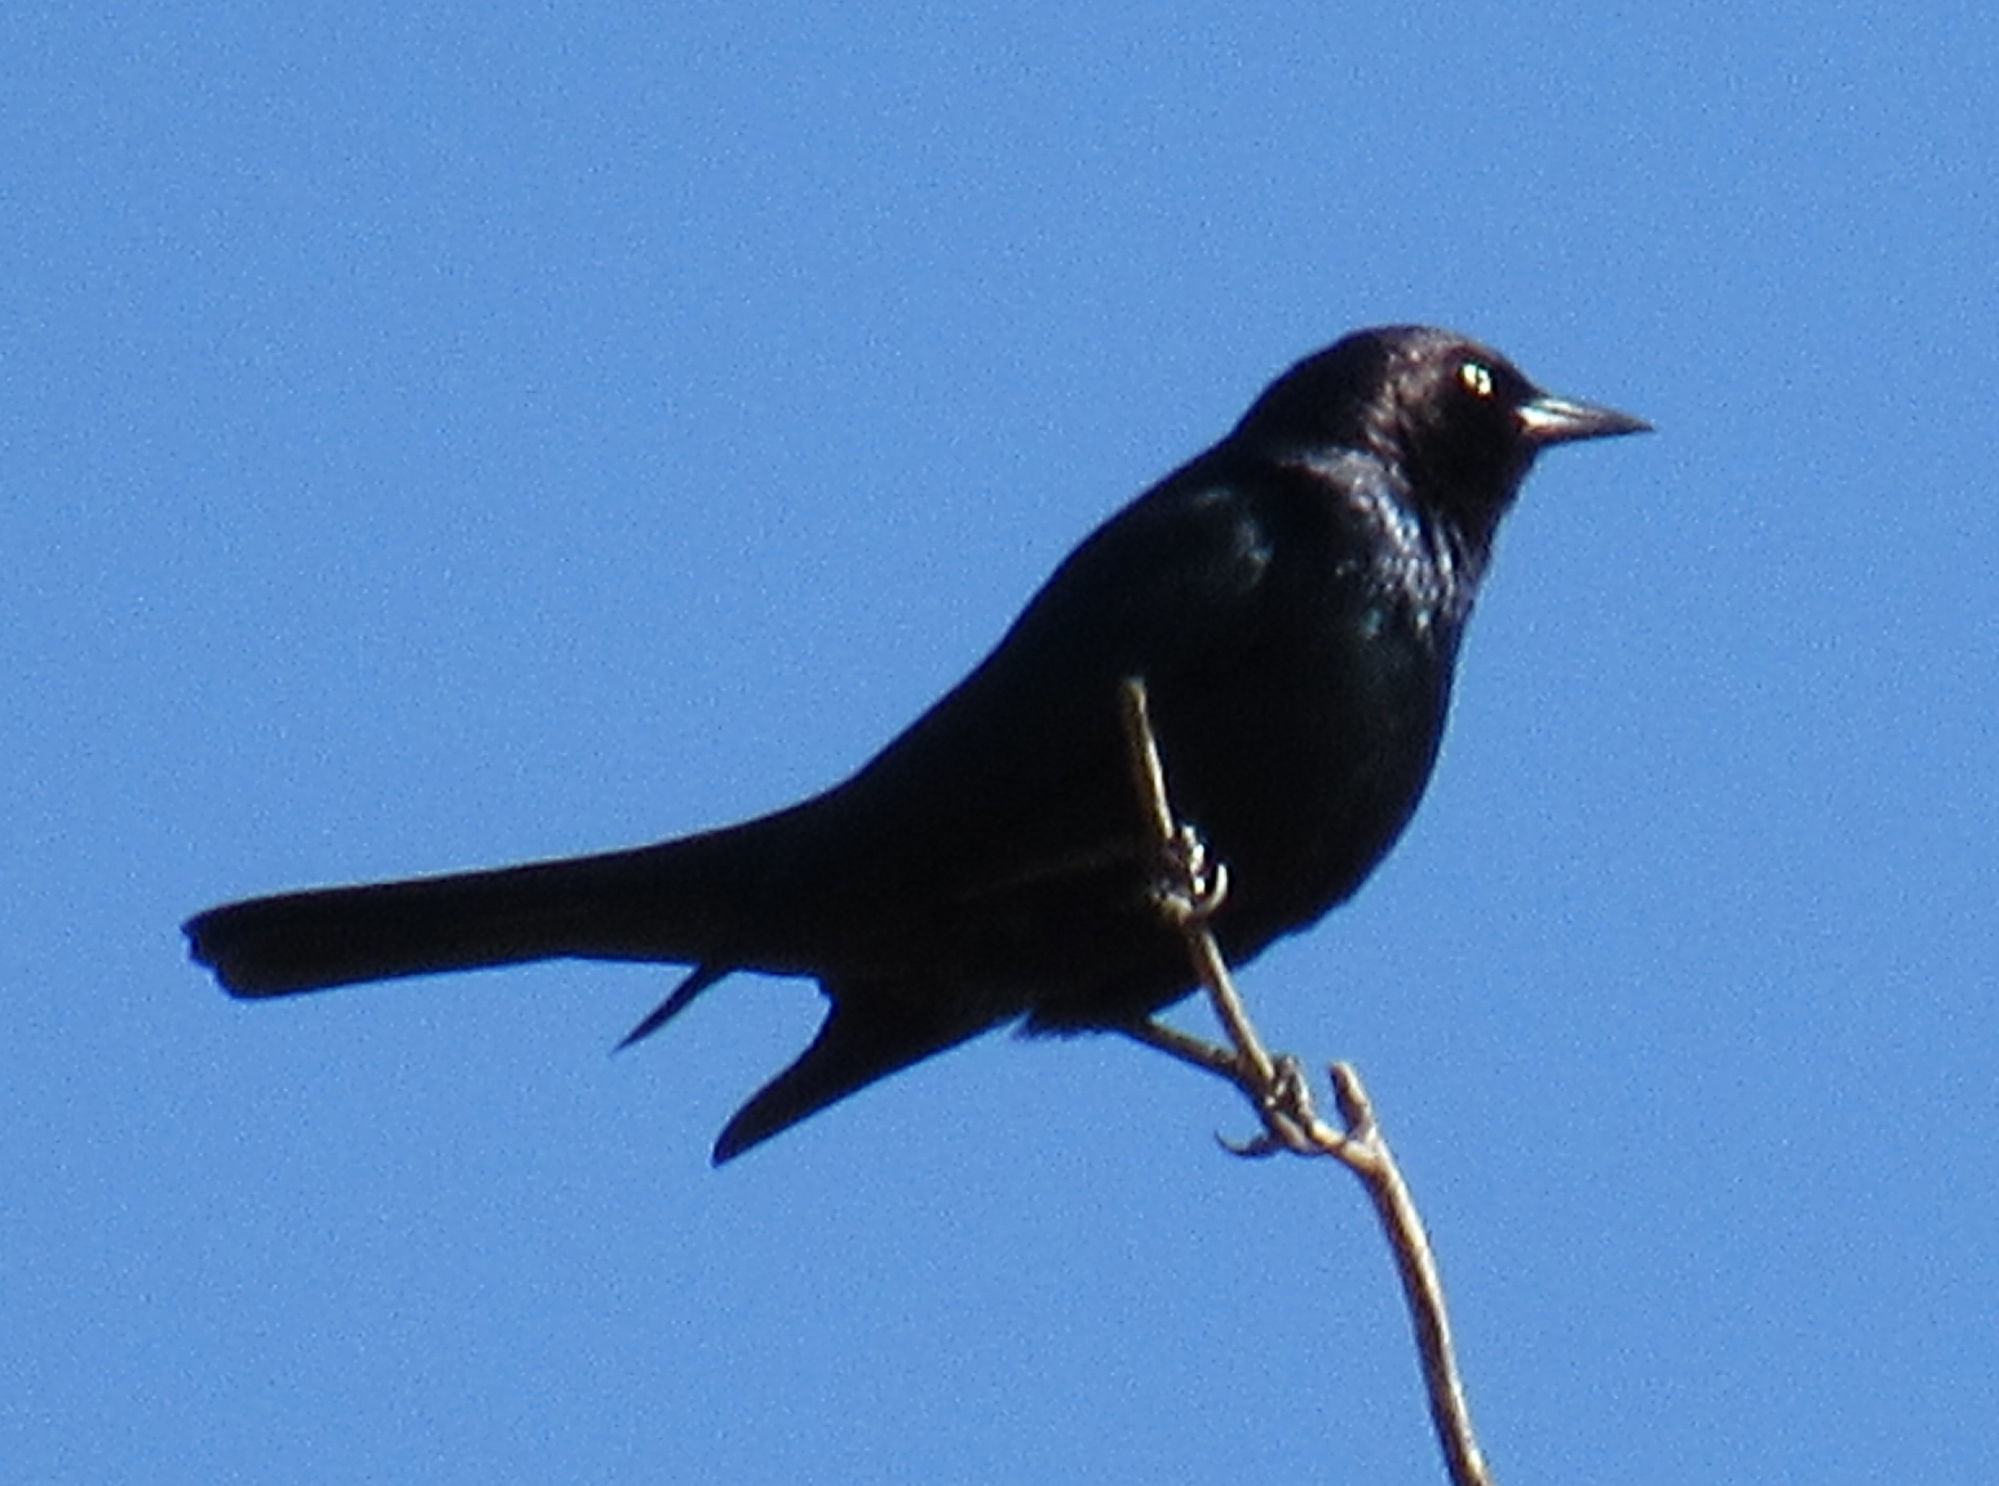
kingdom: Animalia
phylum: Chordata
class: Aves
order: Passeriformes
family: Icteridae
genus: Euphagus
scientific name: Euphagus cyanocephalus
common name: Brewer's blackbird
